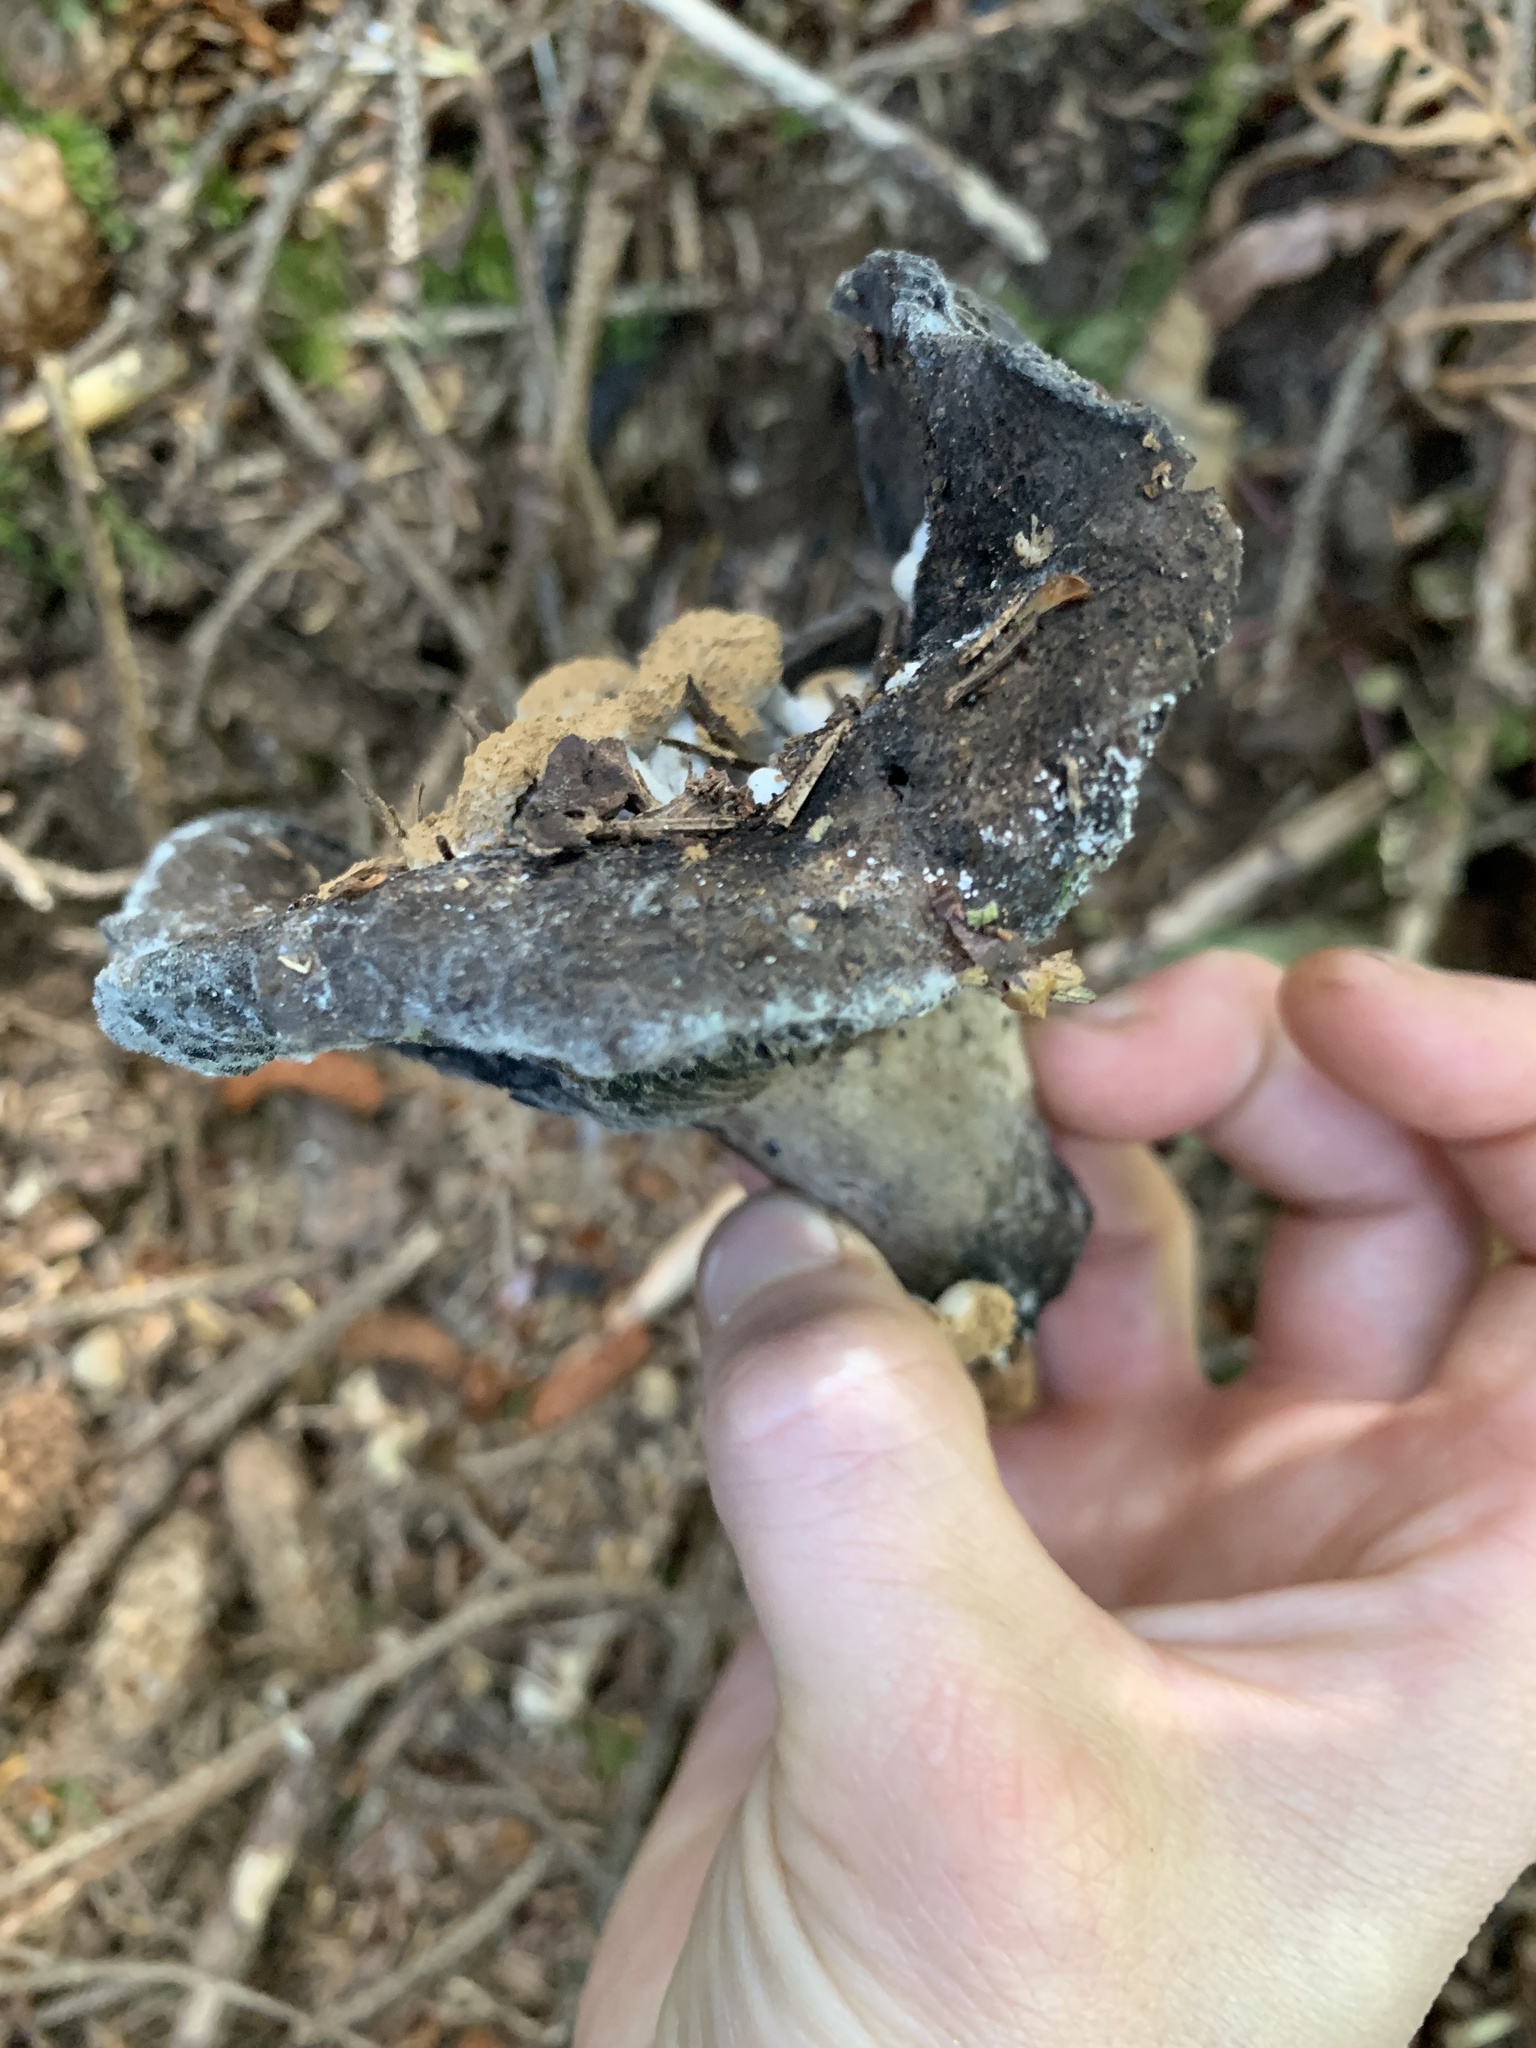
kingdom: Fungi
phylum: Basidiomycota
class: Agaricomycetes
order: Agaricales
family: Lyophyllaceae
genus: Asterophora
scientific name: Asterophora lycoperdoides
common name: Pick-a-back toadstool
